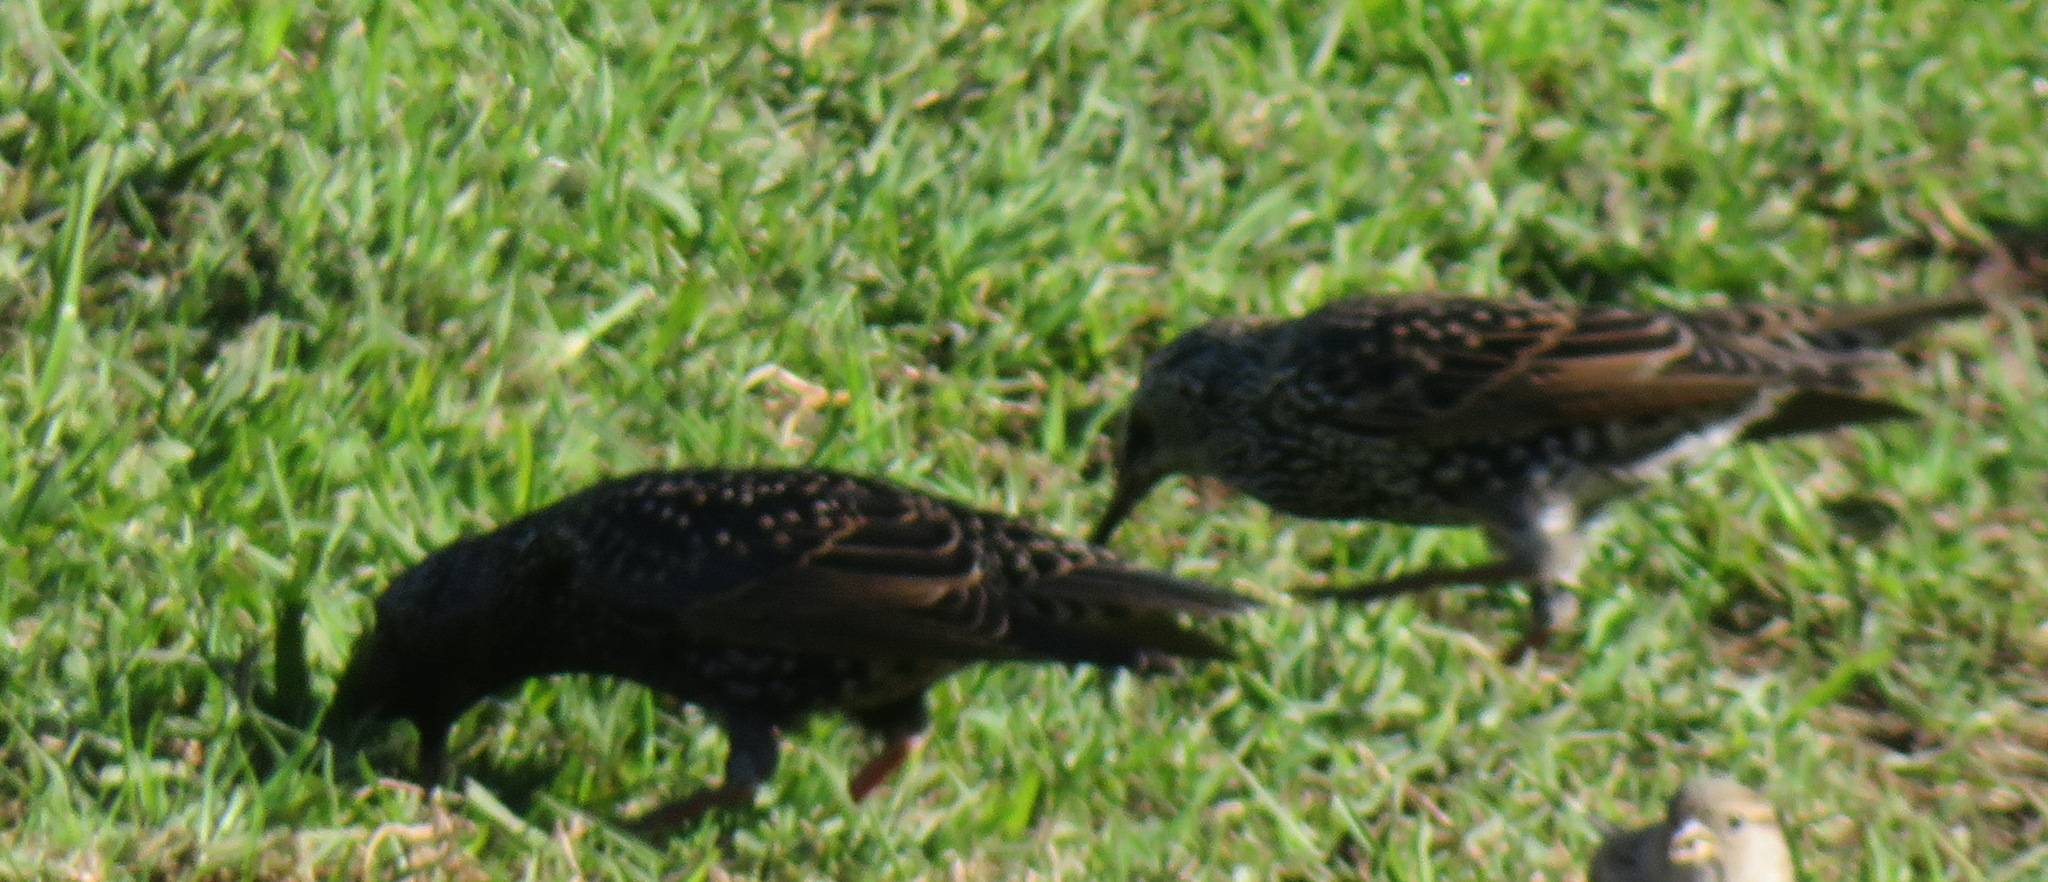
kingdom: Animalia
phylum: Chordata
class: Aves
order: Passeriformes
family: Sturnidae
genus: Sturnus
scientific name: Sturnus vulgaris
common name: Common starling
